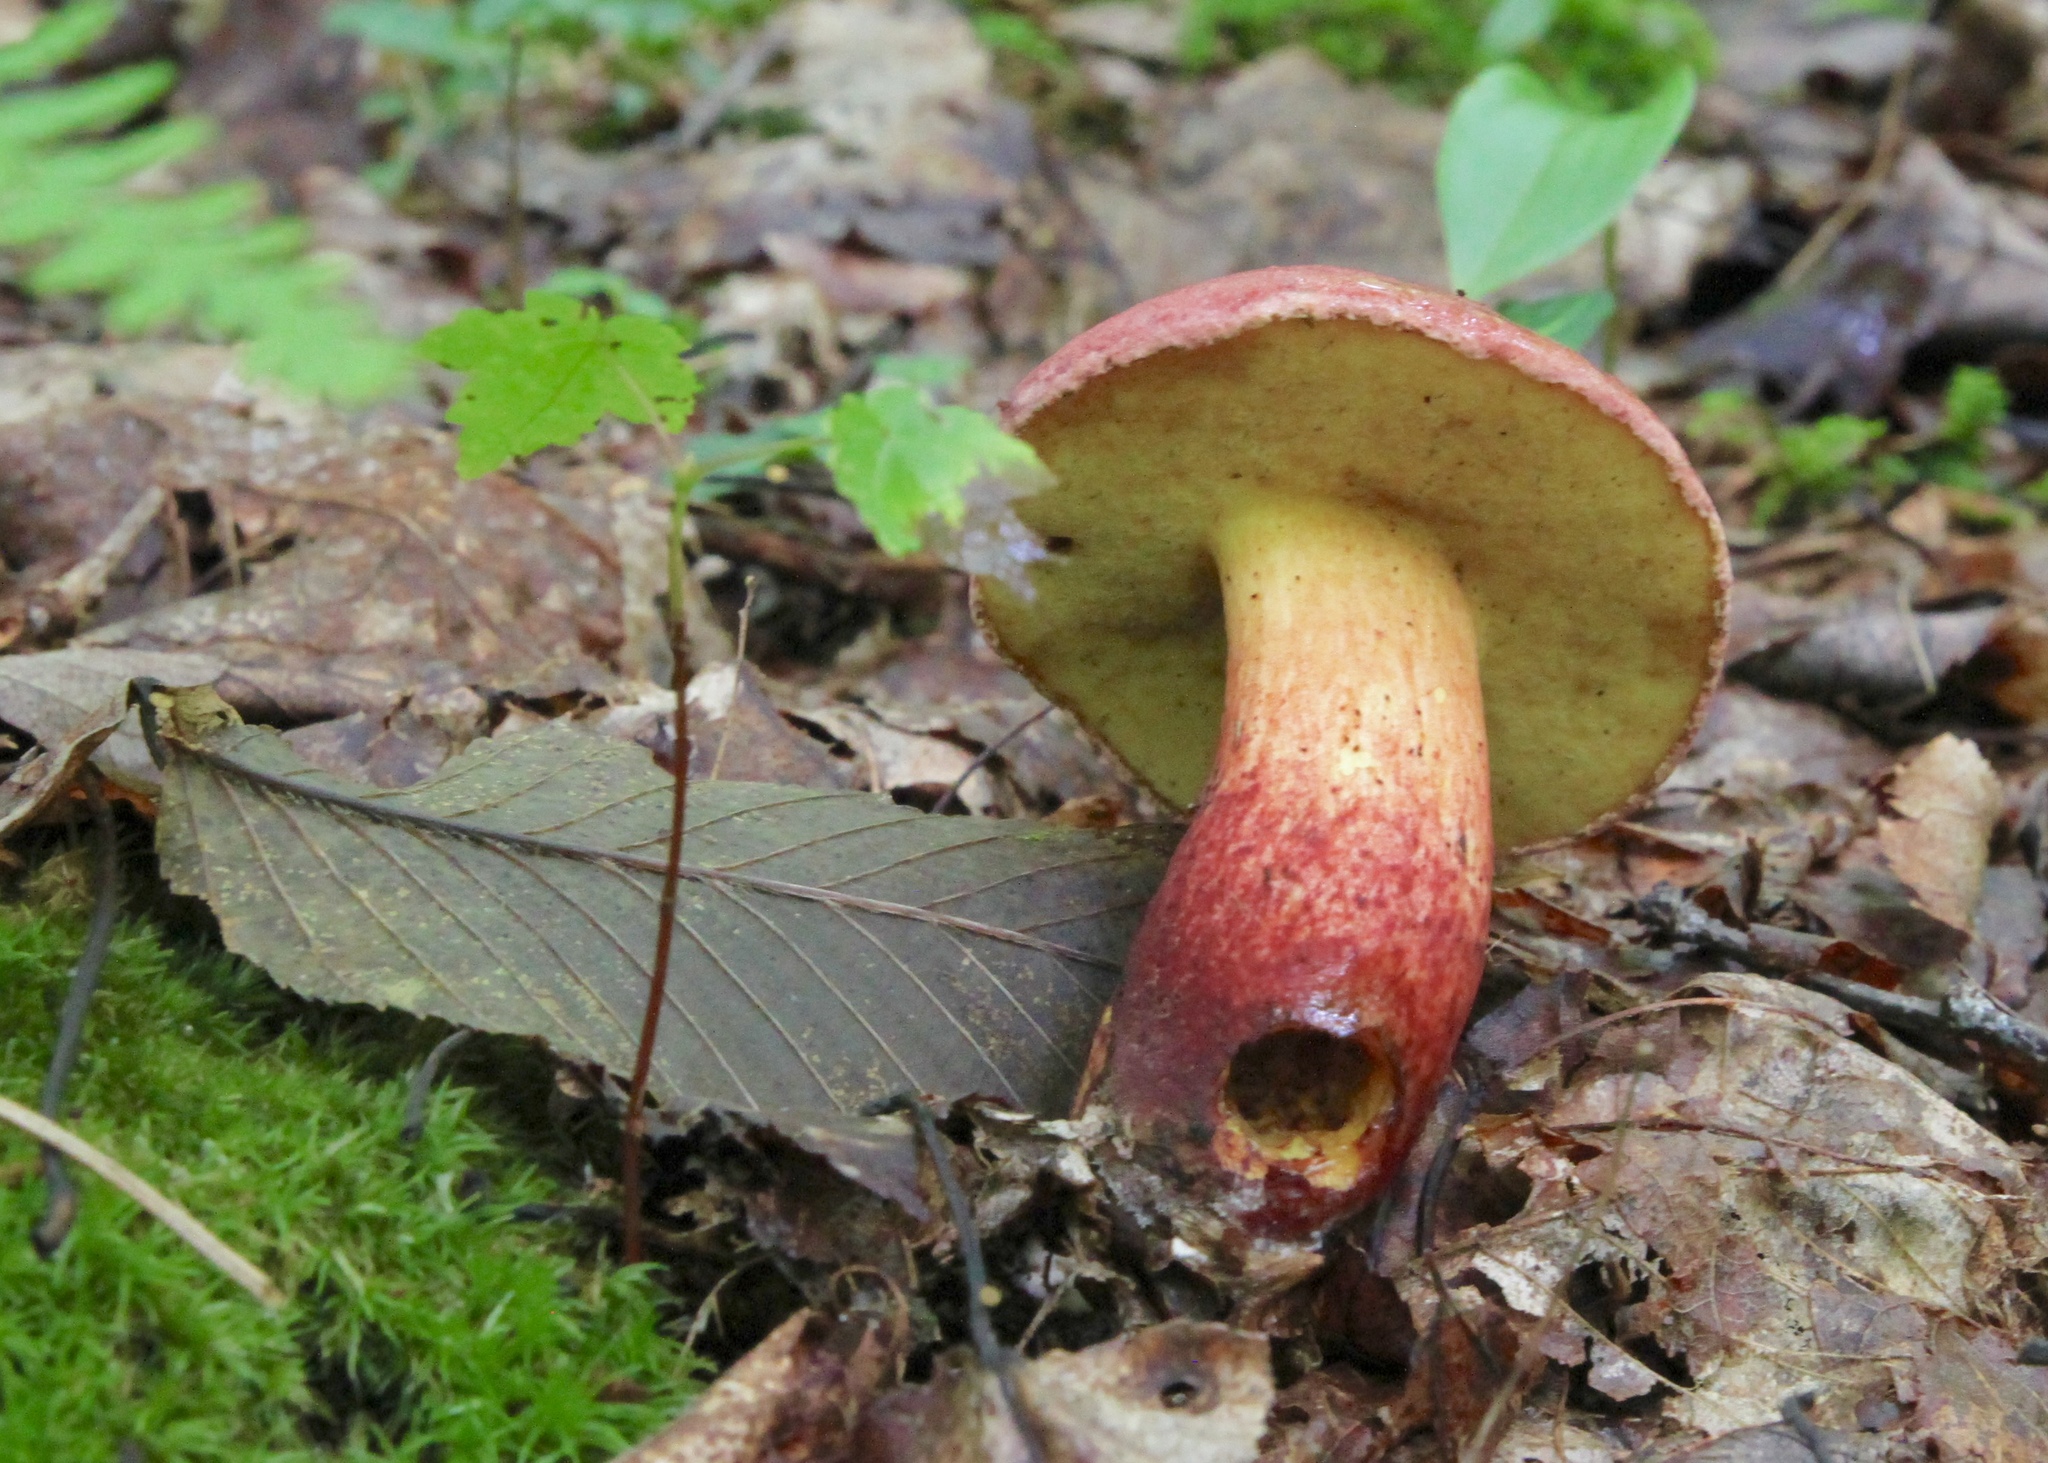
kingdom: Fungi
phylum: Basidiomycota
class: Agaricomycetes
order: Boletales
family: Boletaceae
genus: Baorangia
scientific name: Baorangia bicolor
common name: Two-colored bolete
